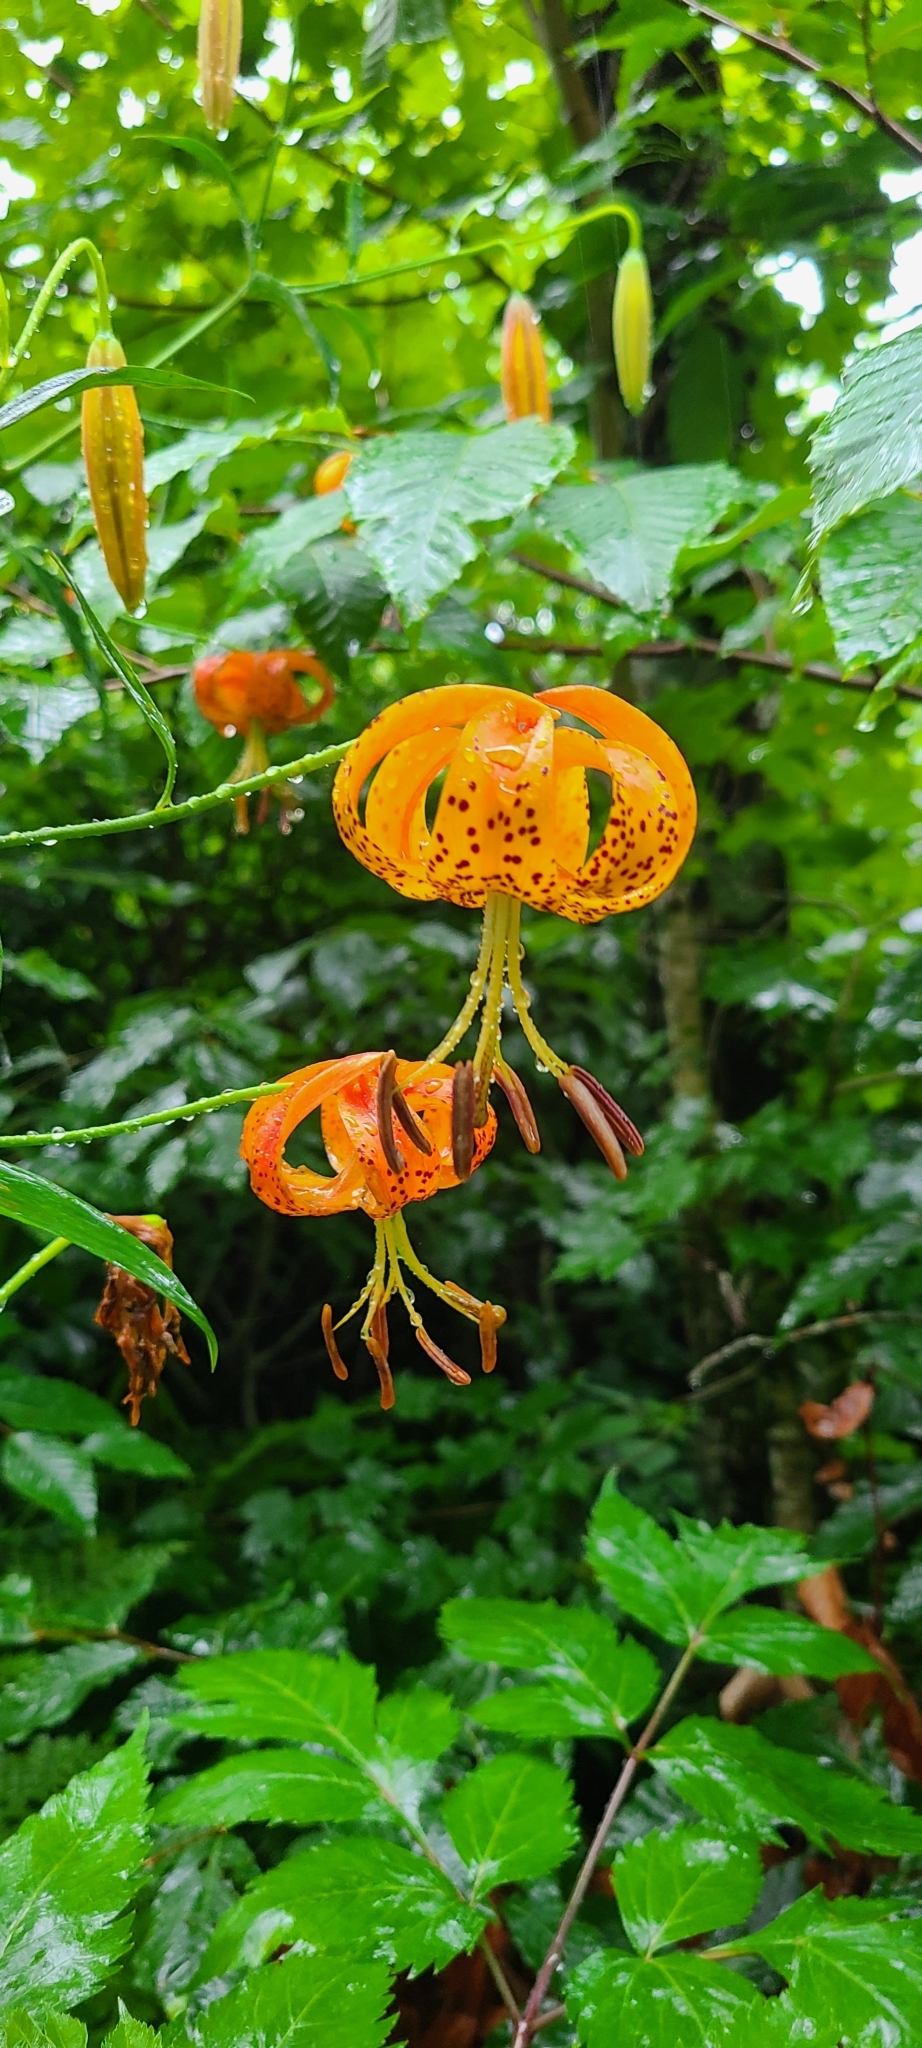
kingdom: Plantae
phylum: Tracheophyta
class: Liliopsida
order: Liliales
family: Liliaceae
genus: Lilium
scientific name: Lilium superbum
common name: American turk's-cap lily
